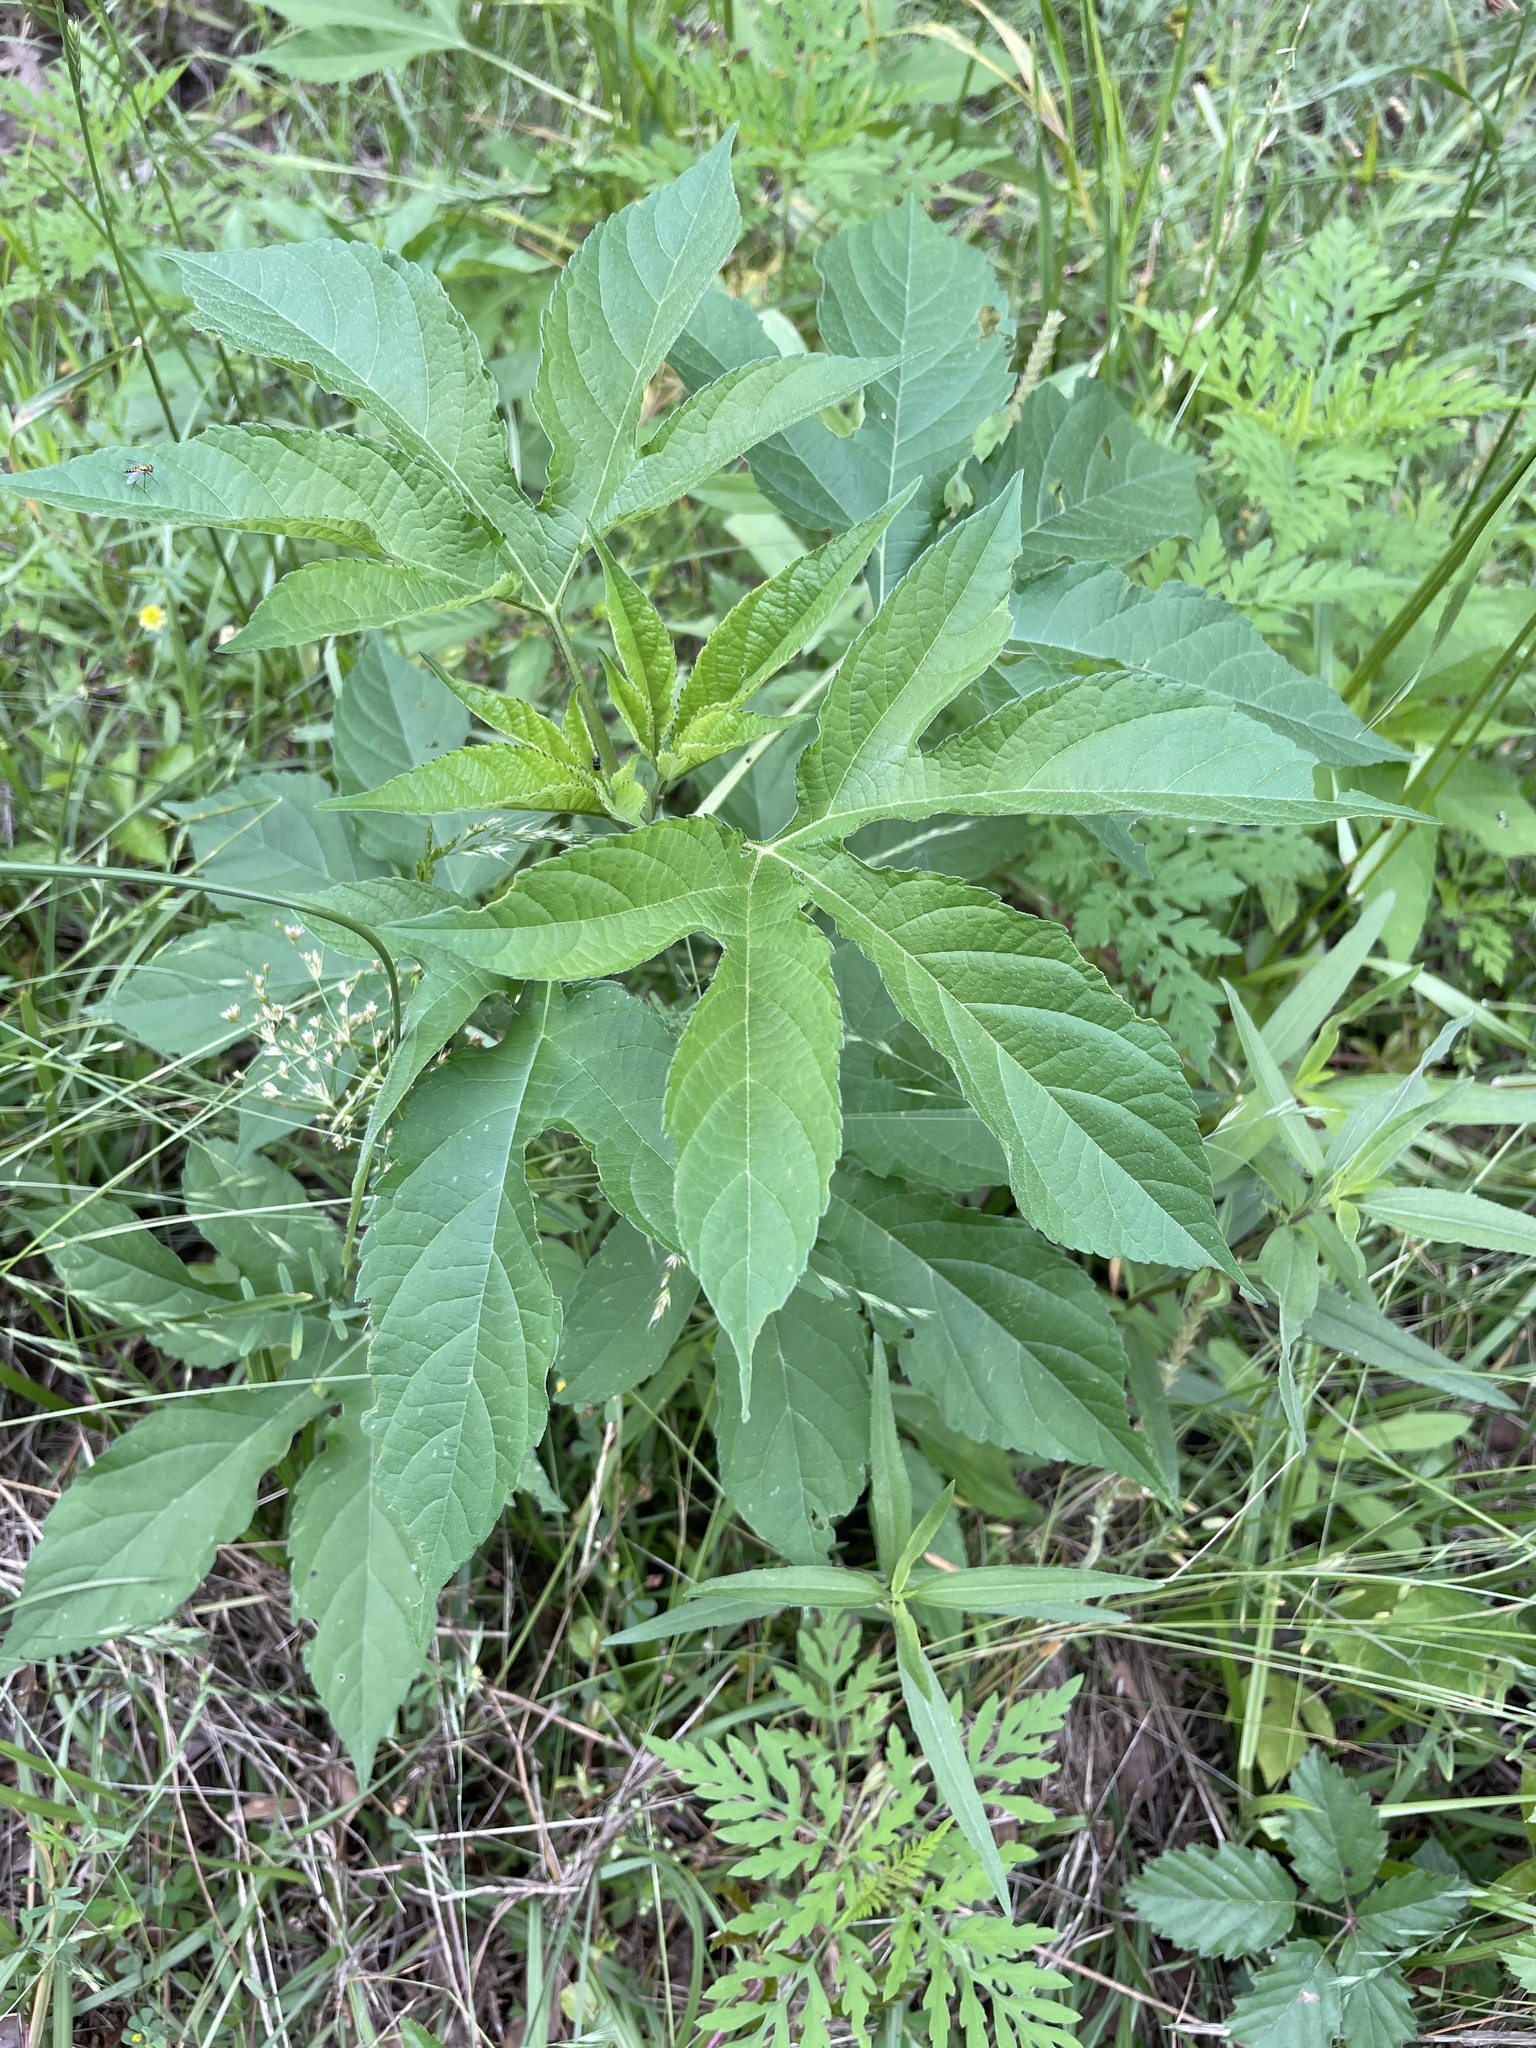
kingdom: Plantae
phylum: Tracheophyta
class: Magnoliopsida
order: Asterales
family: Asteraceae
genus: Ambrosia
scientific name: Ambrosia trifida
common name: Giant ragweed
